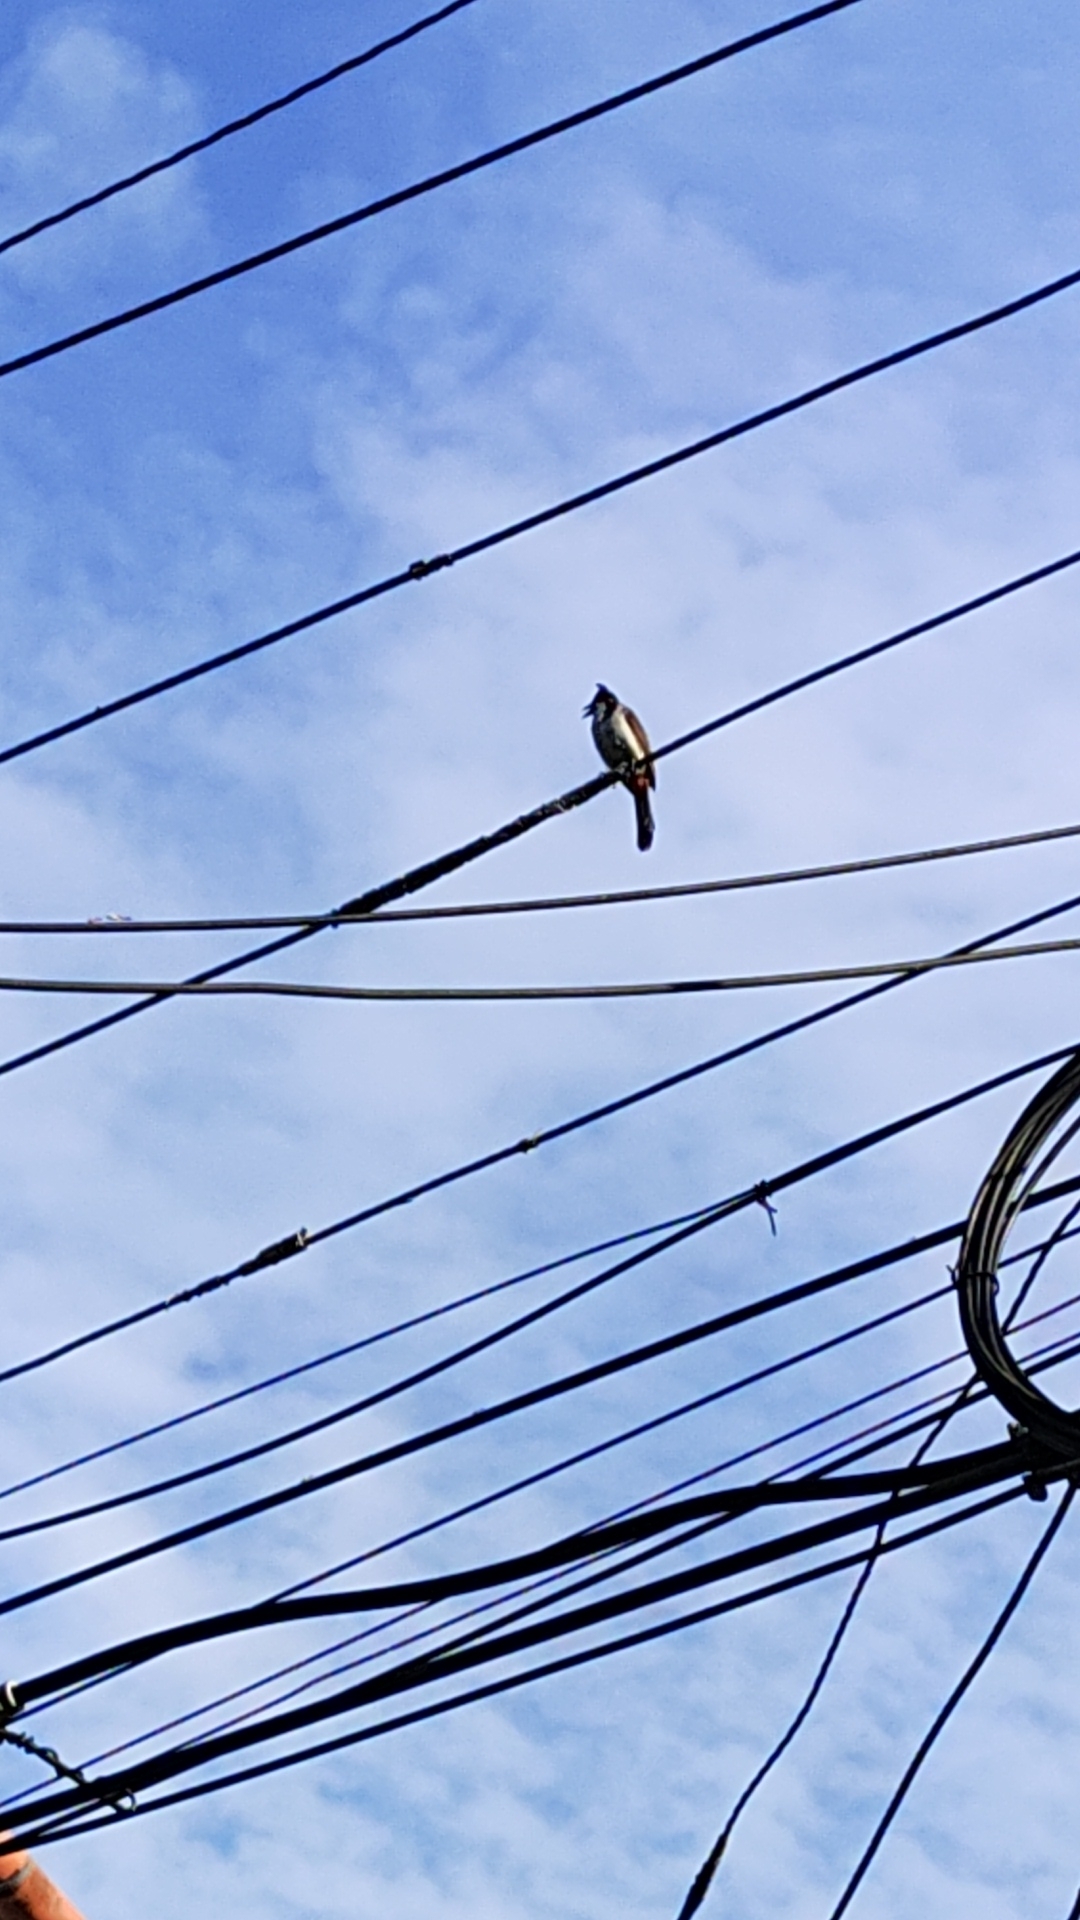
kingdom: Animalia
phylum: Chordata
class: Aves
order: Passeriformes
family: Pycnonotidae
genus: Pycnonotus
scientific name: Pycnonotus jocosus
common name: Red-whiskered bulbul
